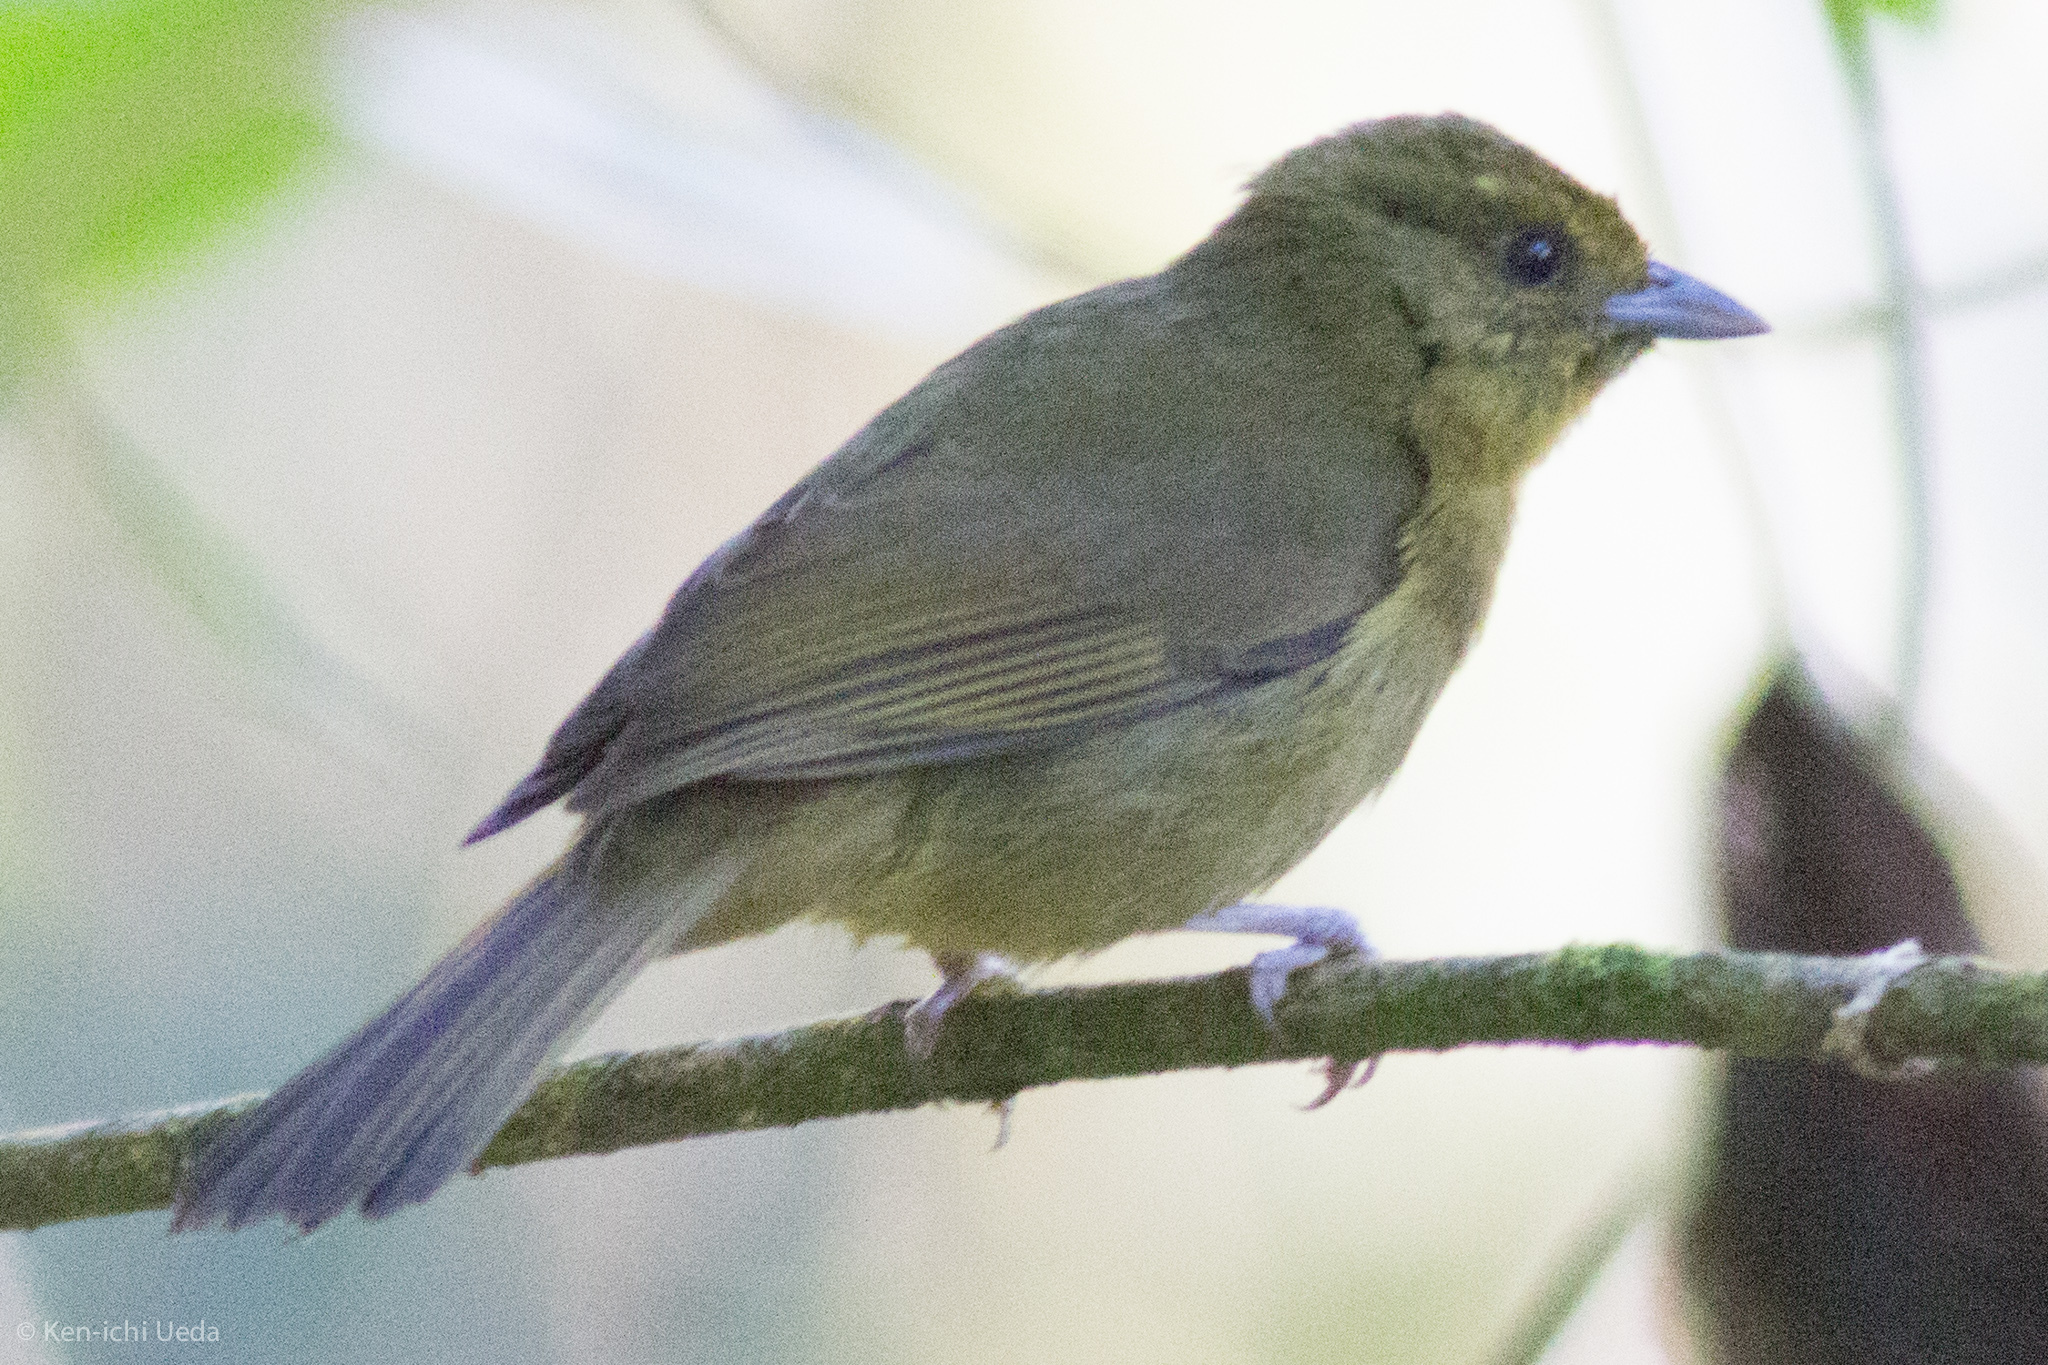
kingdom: Animalia
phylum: Chordata
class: Aves
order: Passeriformes
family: Thraupidae
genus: Sphenopsis
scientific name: Sphenopsis frontalis
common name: Oleaginous hemispingus
